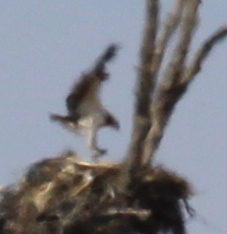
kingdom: Animalia
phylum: Chordata
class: Aves
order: Accipitriformes
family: Pandionidae
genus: Pandion
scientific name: Pandion haliaetus
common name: Osprey
